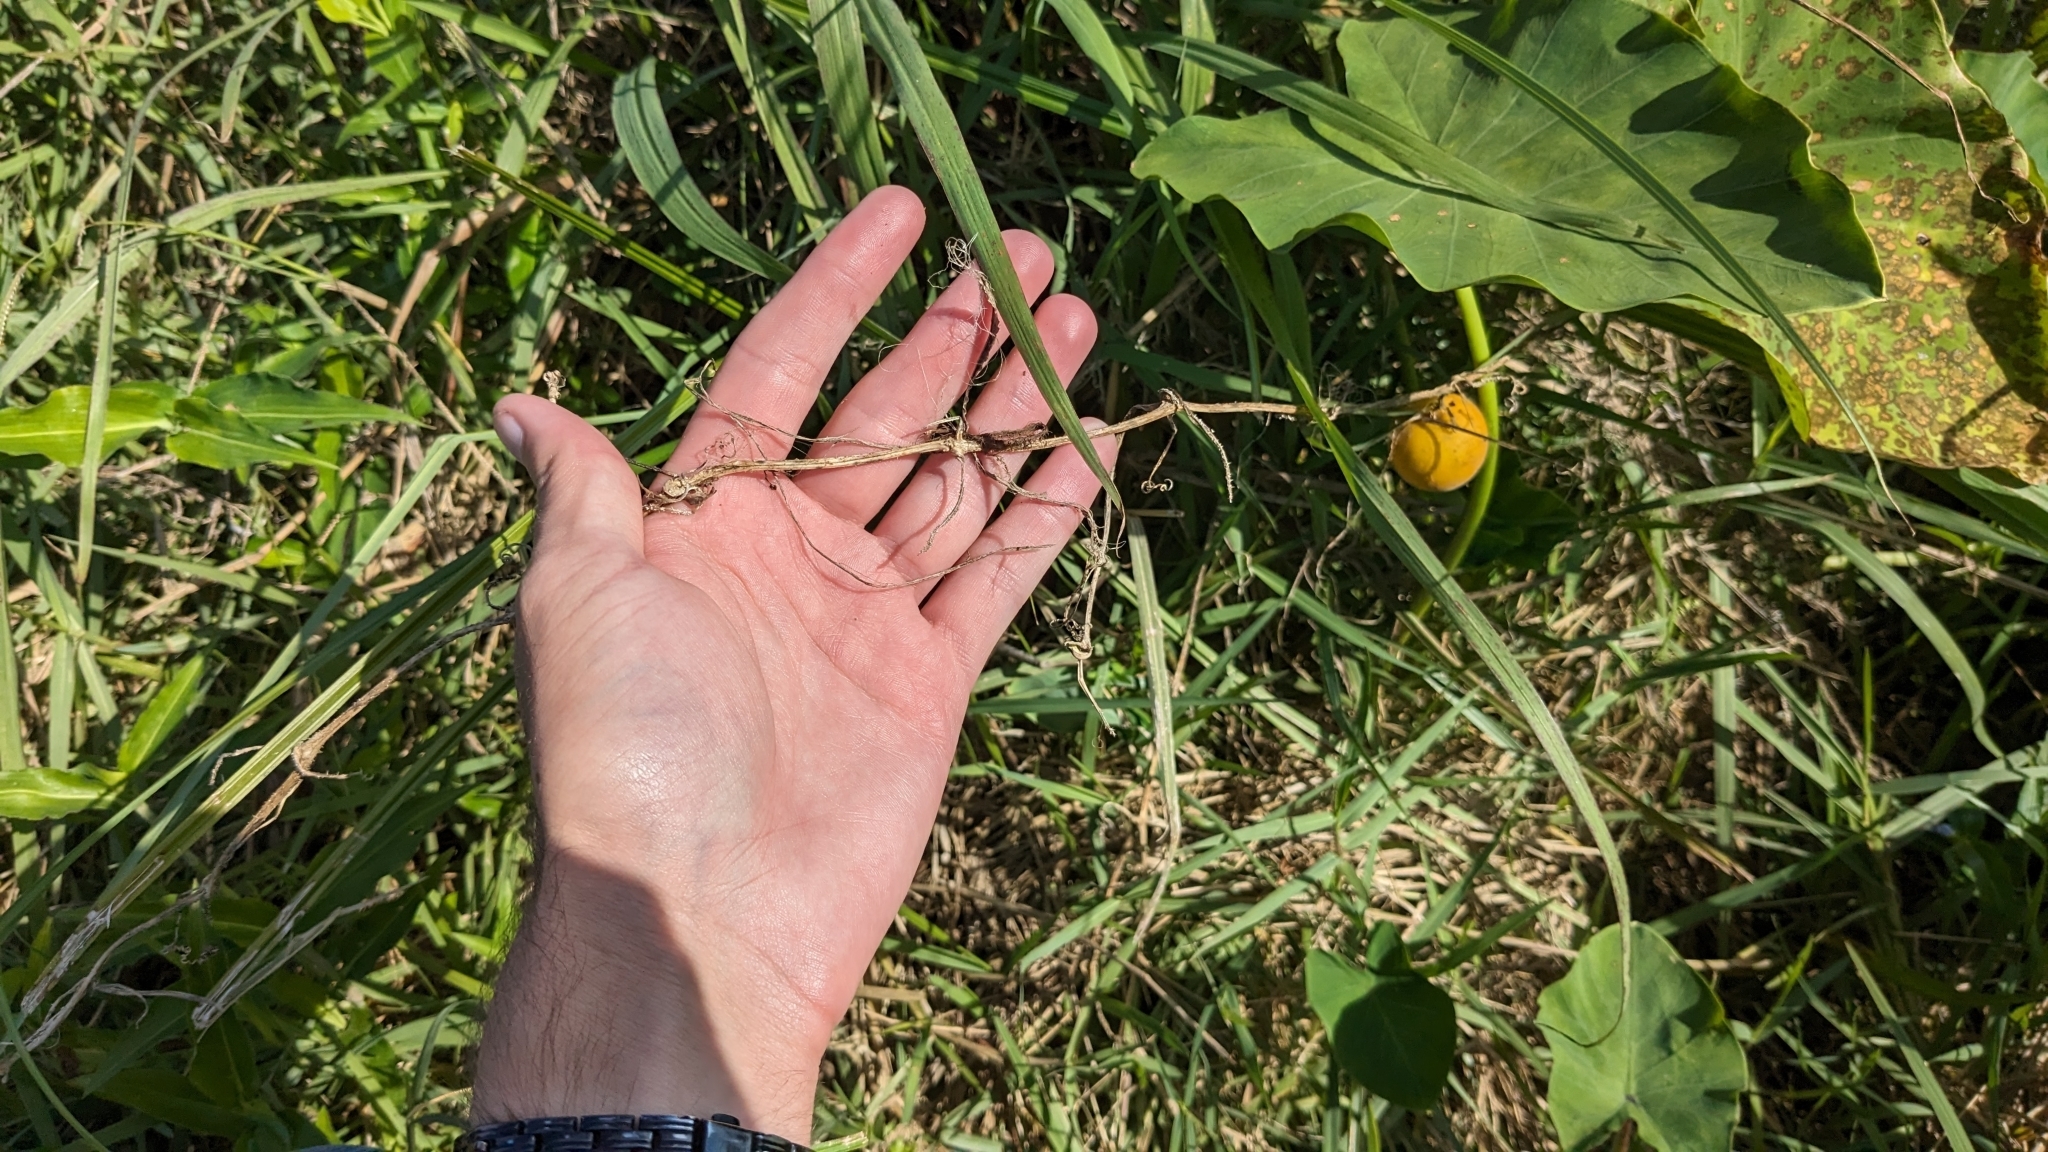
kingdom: Plantae
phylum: Tracheophyta
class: Magnoliopsida
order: Cucurbitales
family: Cucurbitaceae
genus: Cucumis
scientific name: Cucumis melo
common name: Melon
